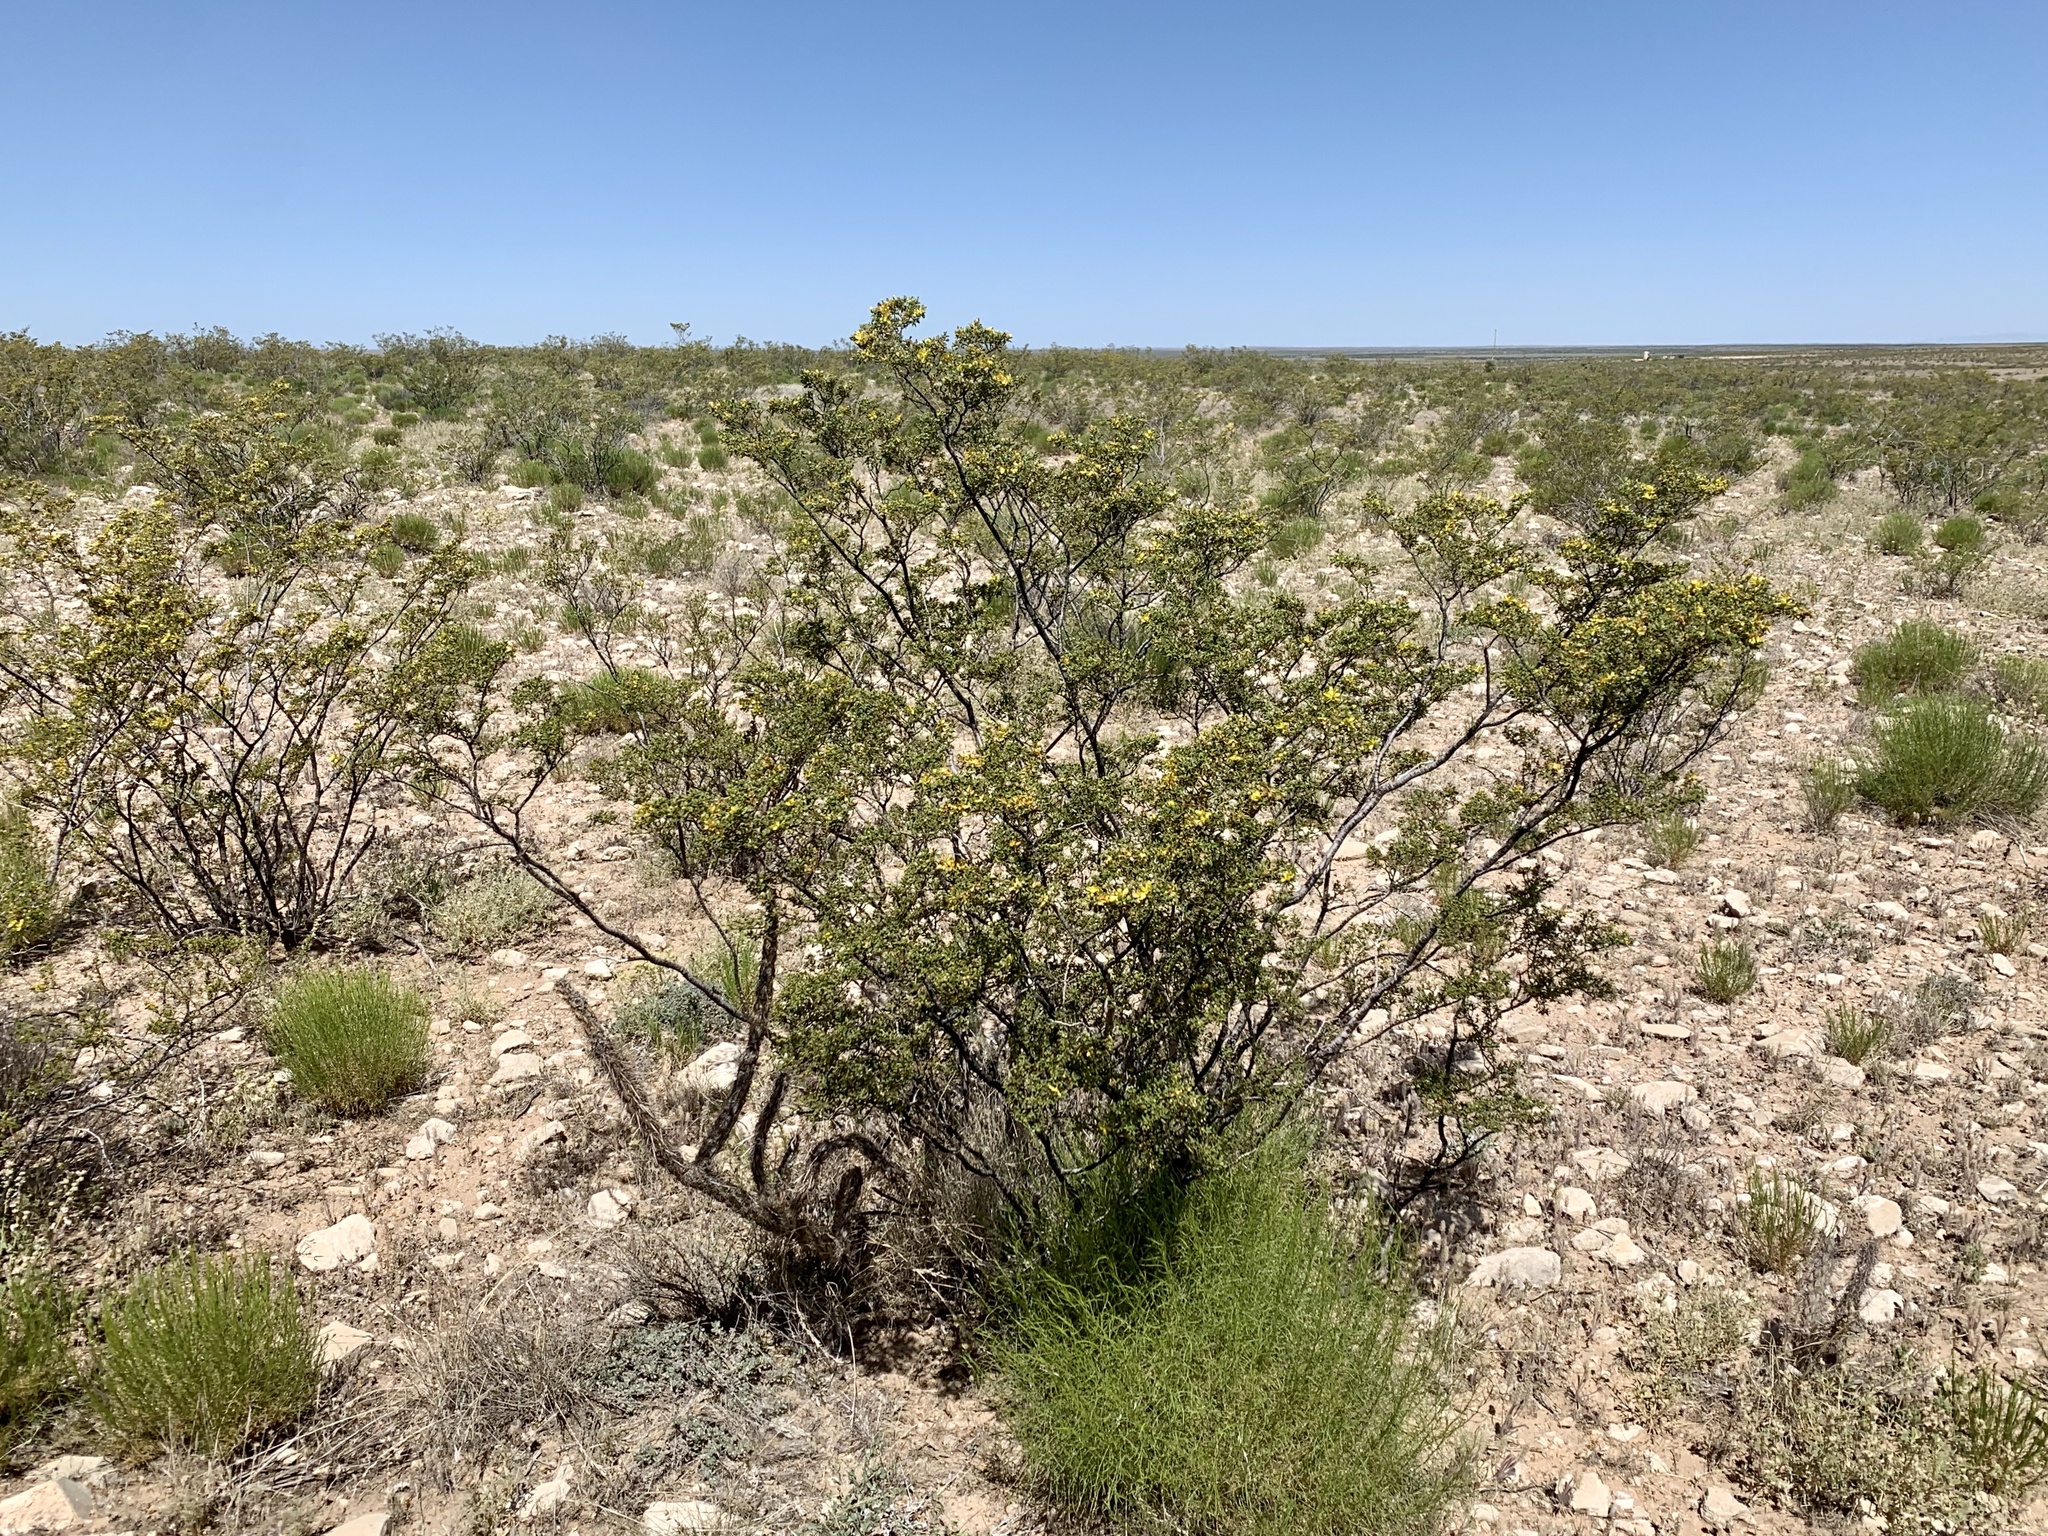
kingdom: Plantae
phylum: Tracheophyta
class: Magnoliopsida
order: Zygophyllales
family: Zygophyllaceae
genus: Larrea
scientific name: Larrea tridentata
